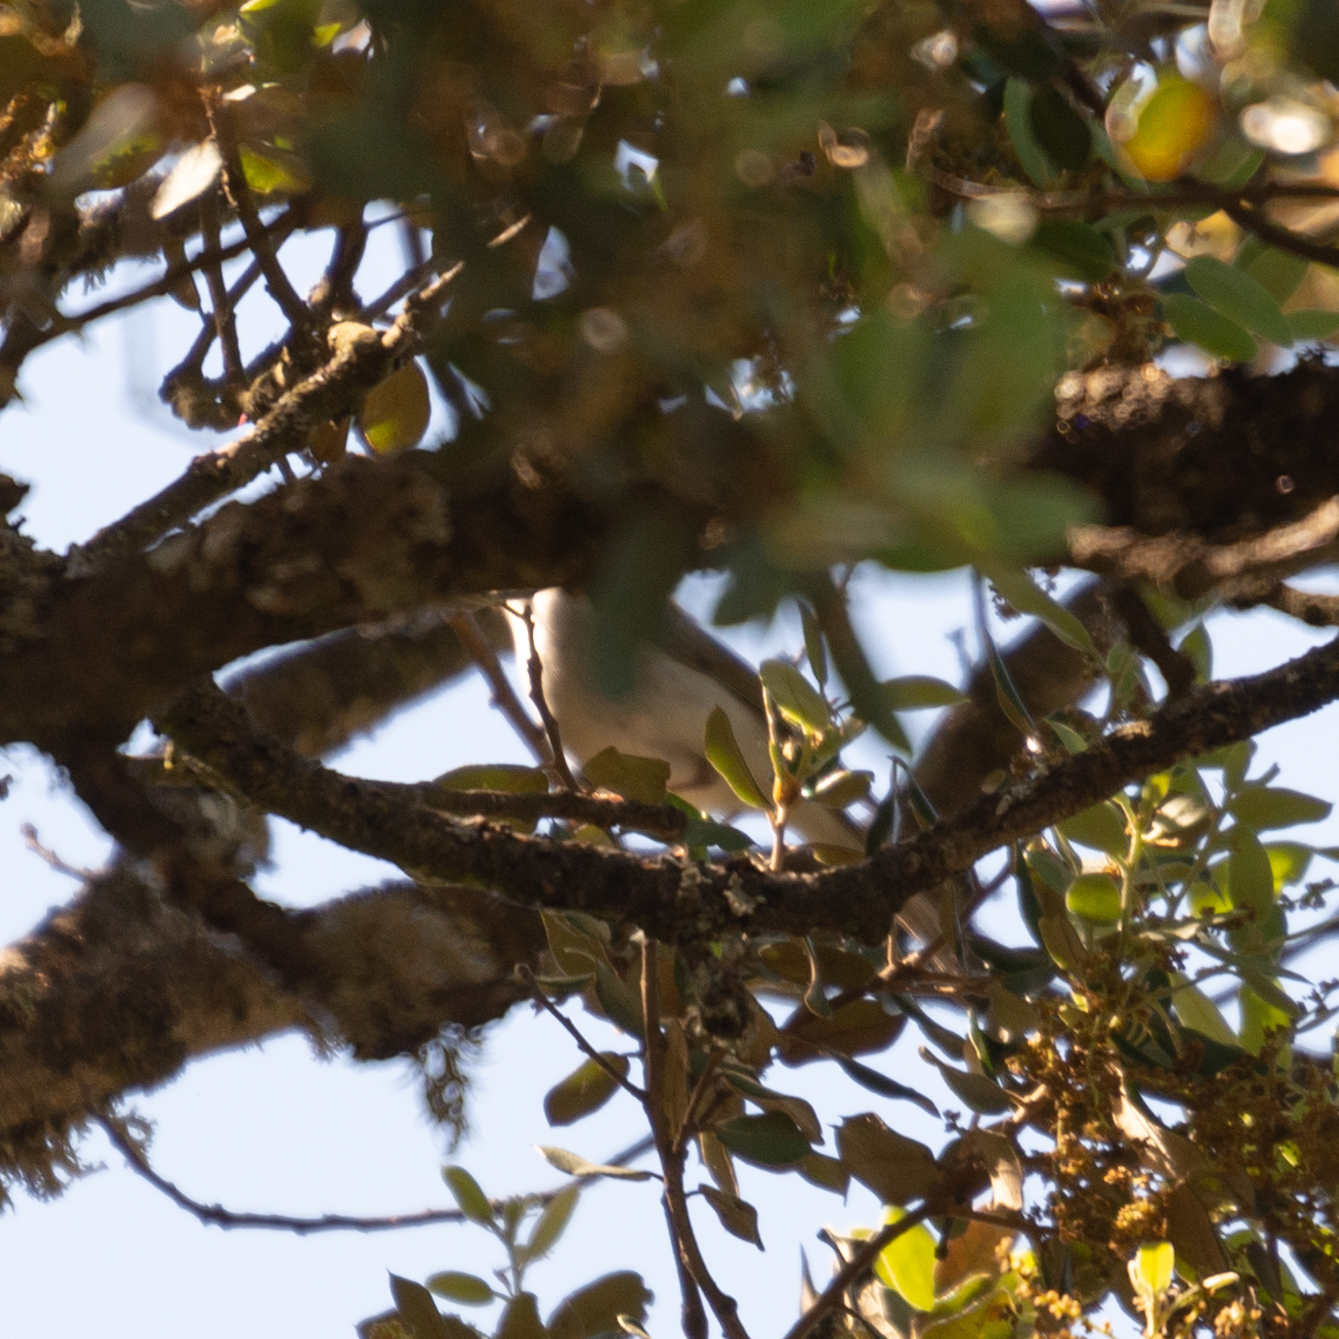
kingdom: Animalia
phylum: Chordata
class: Aves
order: Passeriformes
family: Phylloscopidae
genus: Phylloscopus
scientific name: Phylloscopus bonelli
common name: Western bonelli's warbler
